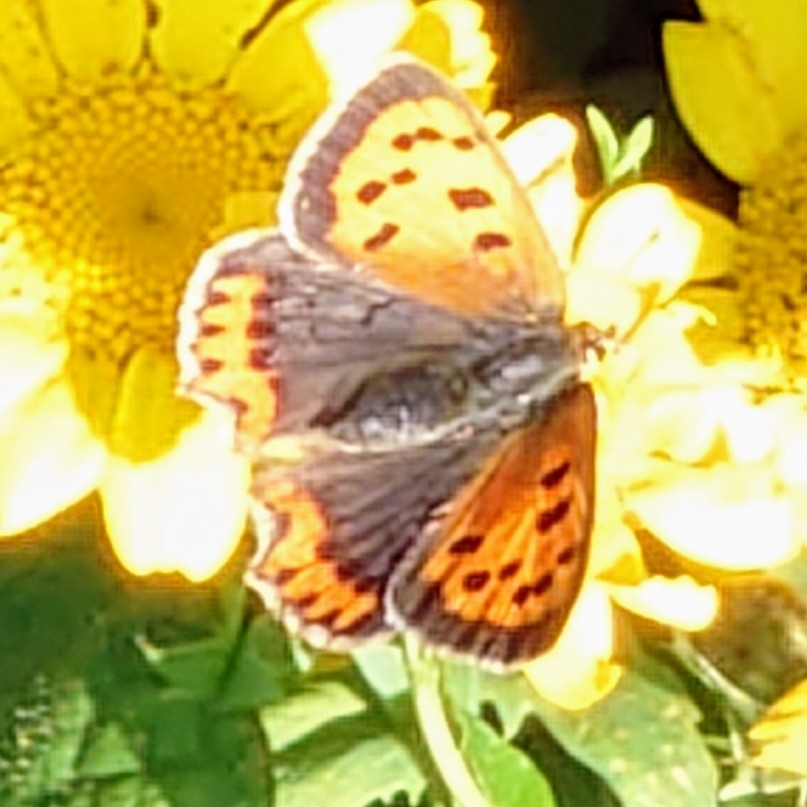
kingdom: Animalia
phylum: Arthropoda
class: Insecta
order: Lepidoptera
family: Lycaenidae
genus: Lycaena
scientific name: Lycaena phlaeas
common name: Small copper
